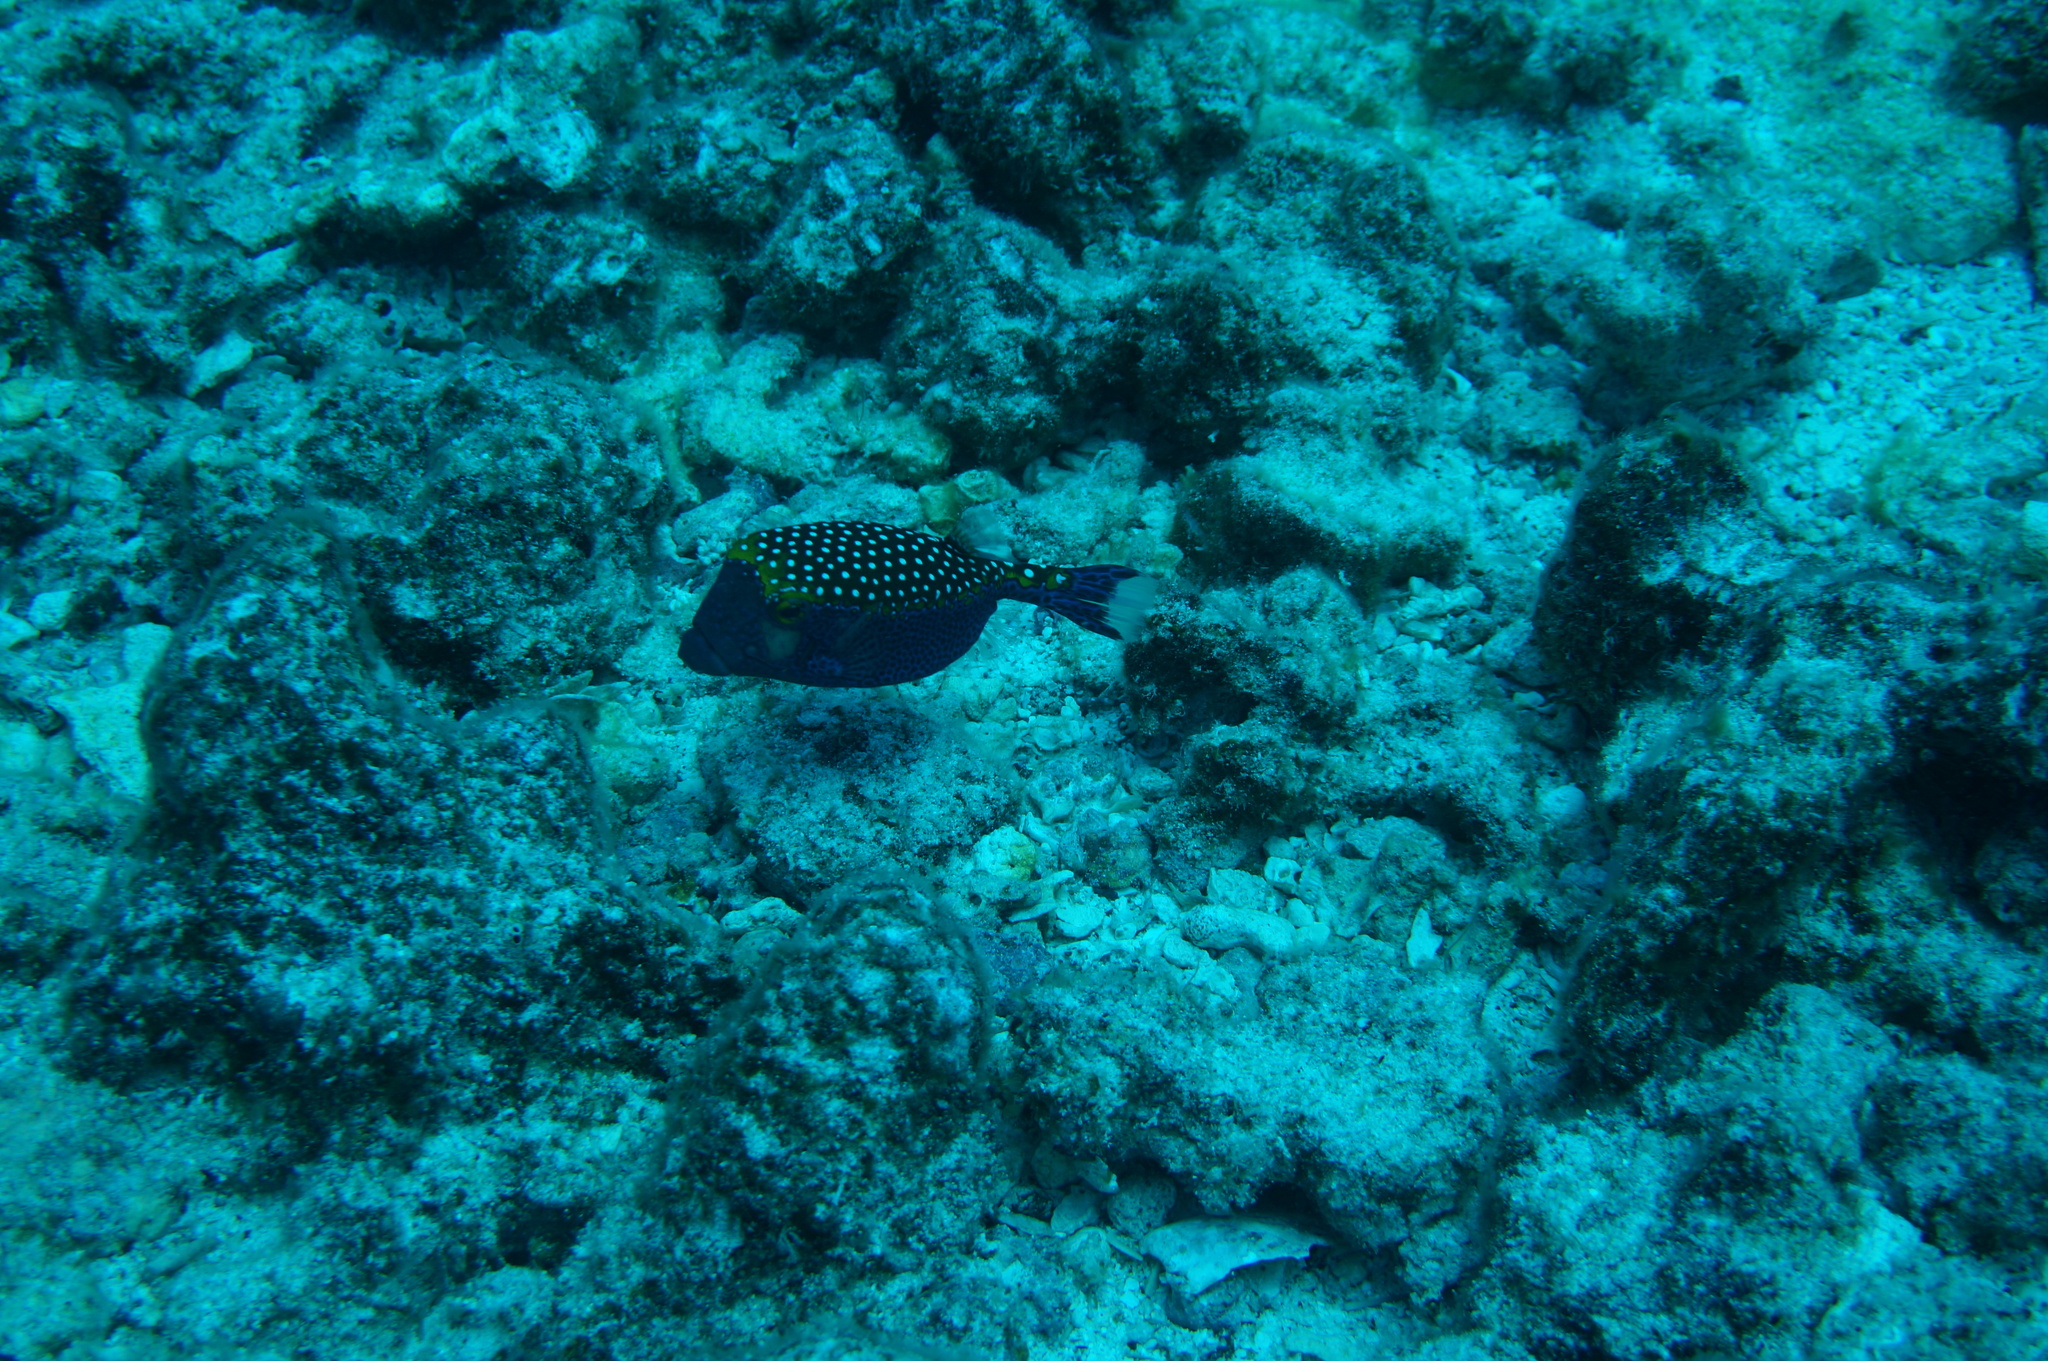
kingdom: Animalia
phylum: Chordata
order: Tetraodontiformes
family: Ostraciidae
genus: Ostracion
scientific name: Ostracion meleagris
